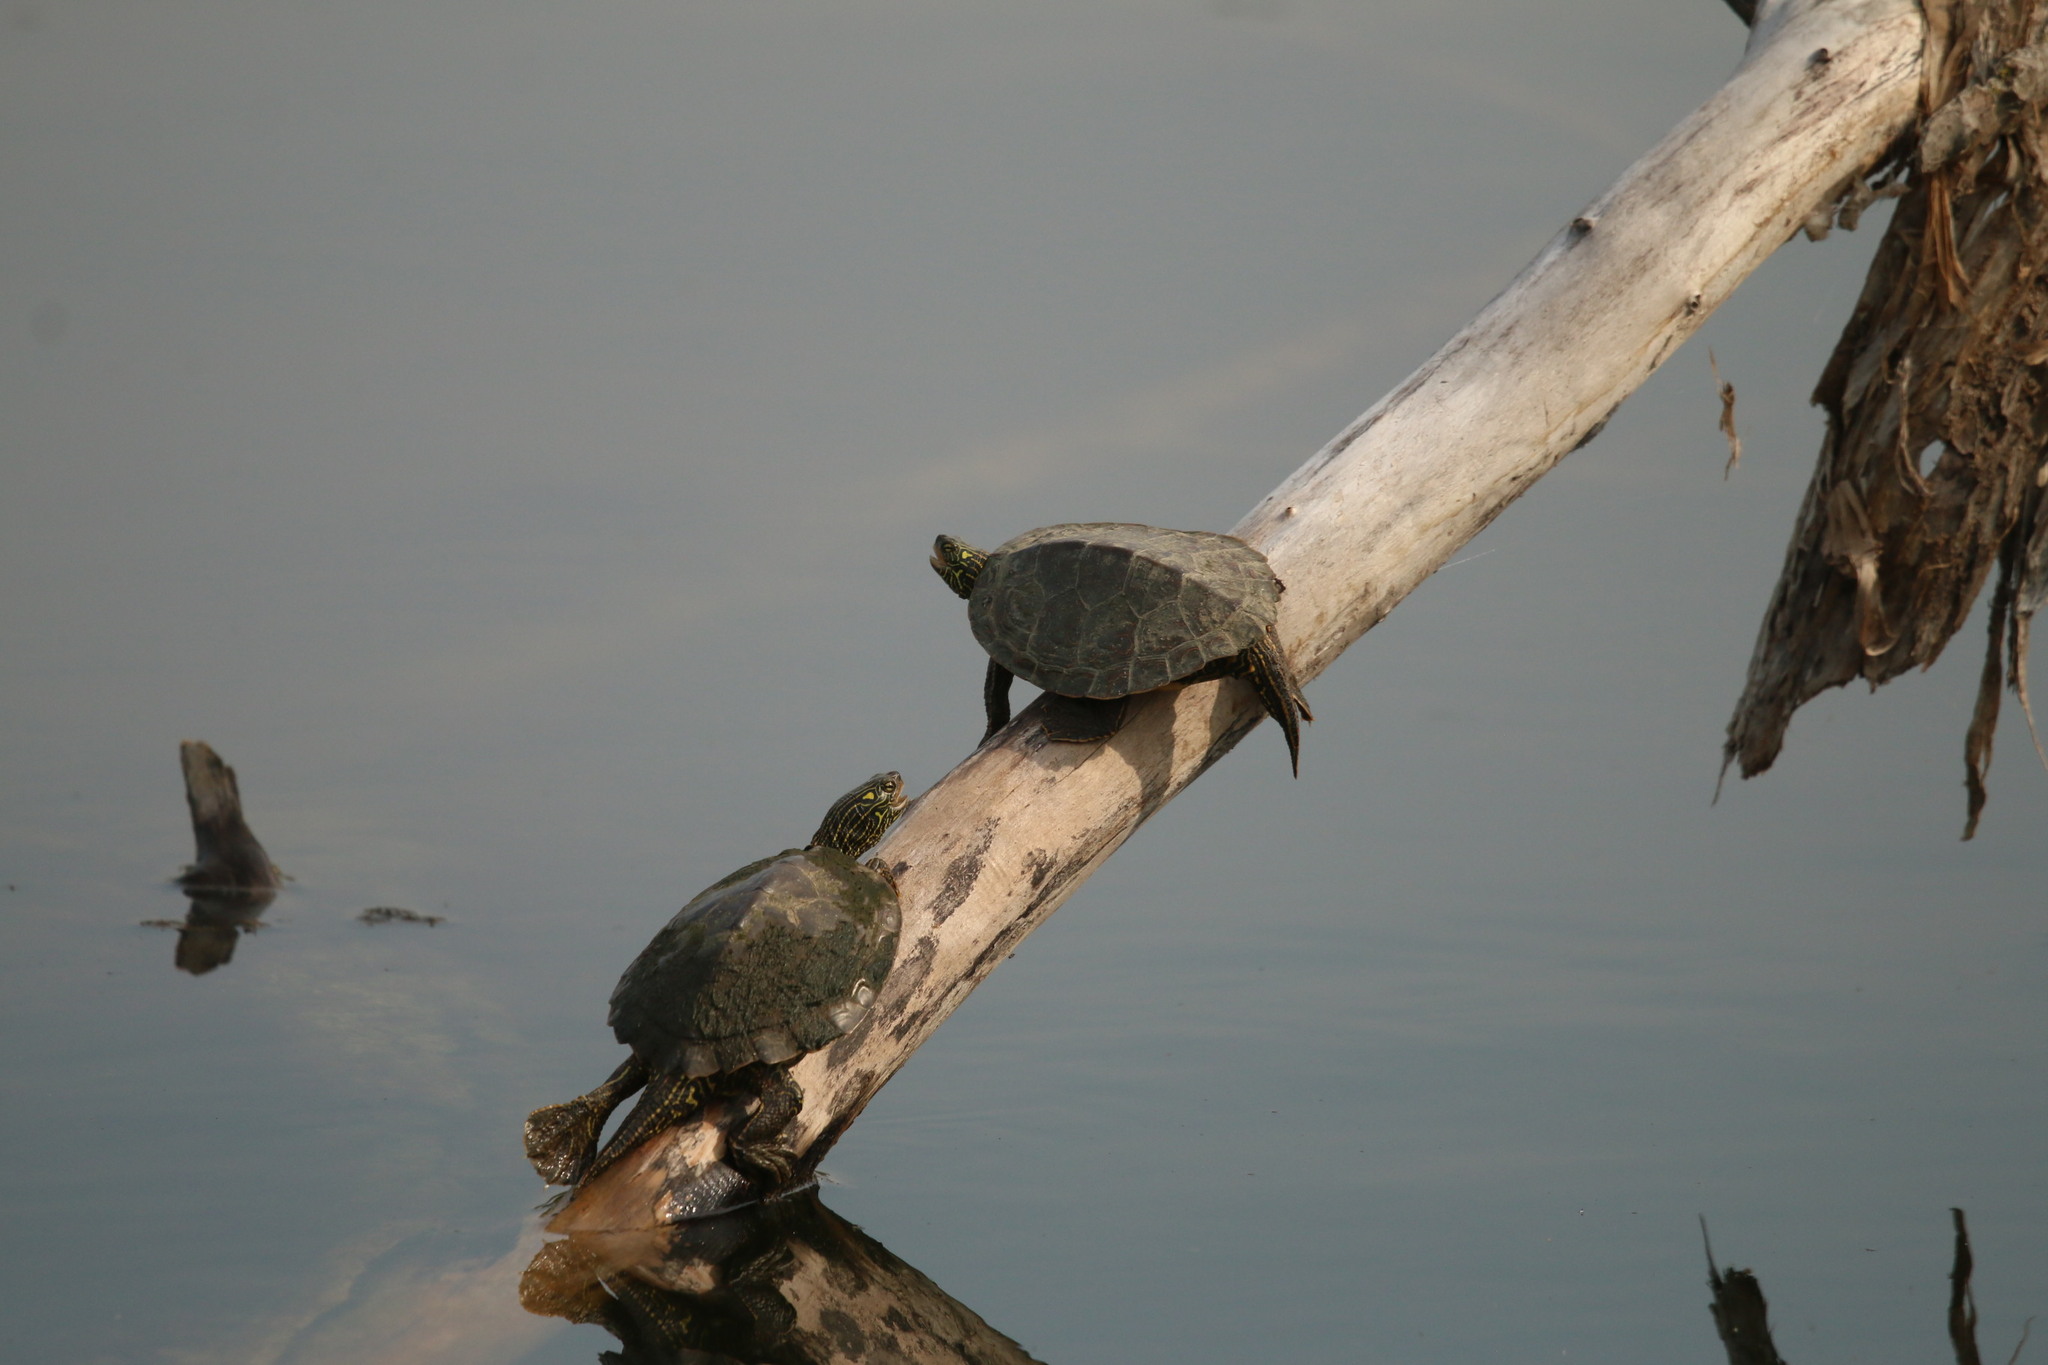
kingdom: Animalia
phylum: Chordata
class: Testudines
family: Emydidae
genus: Graptemys
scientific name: Graptemys geographica
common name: Common map turtle
